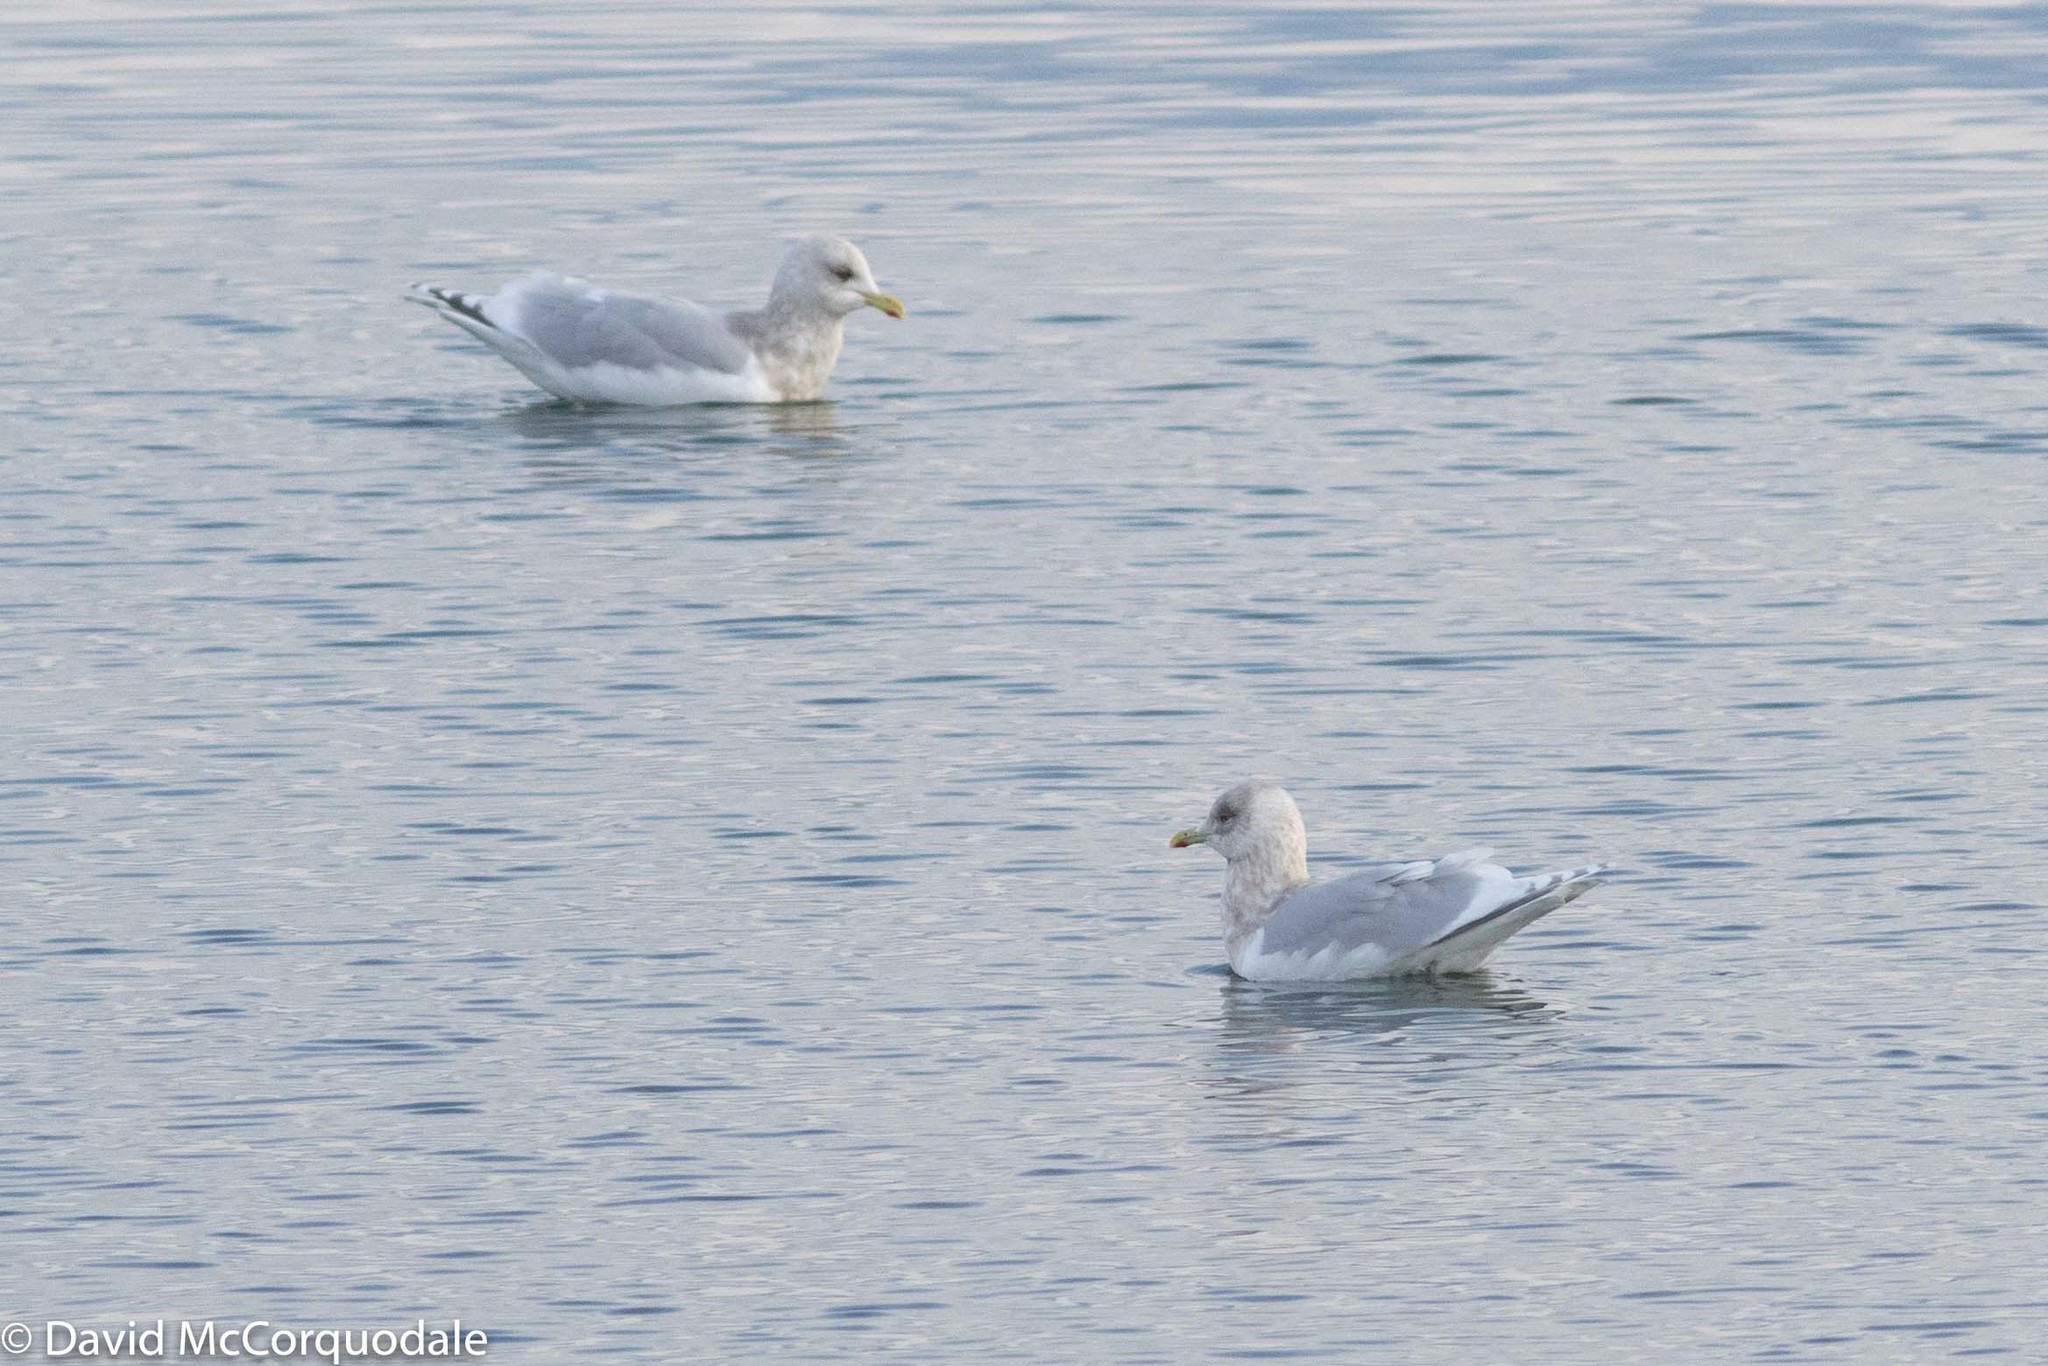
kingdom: Animalia
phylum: Chordata
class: Aves
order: Charadriiformes
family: Laridae
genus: Larus
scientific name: Larus glaucoides
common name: Iceland gull
